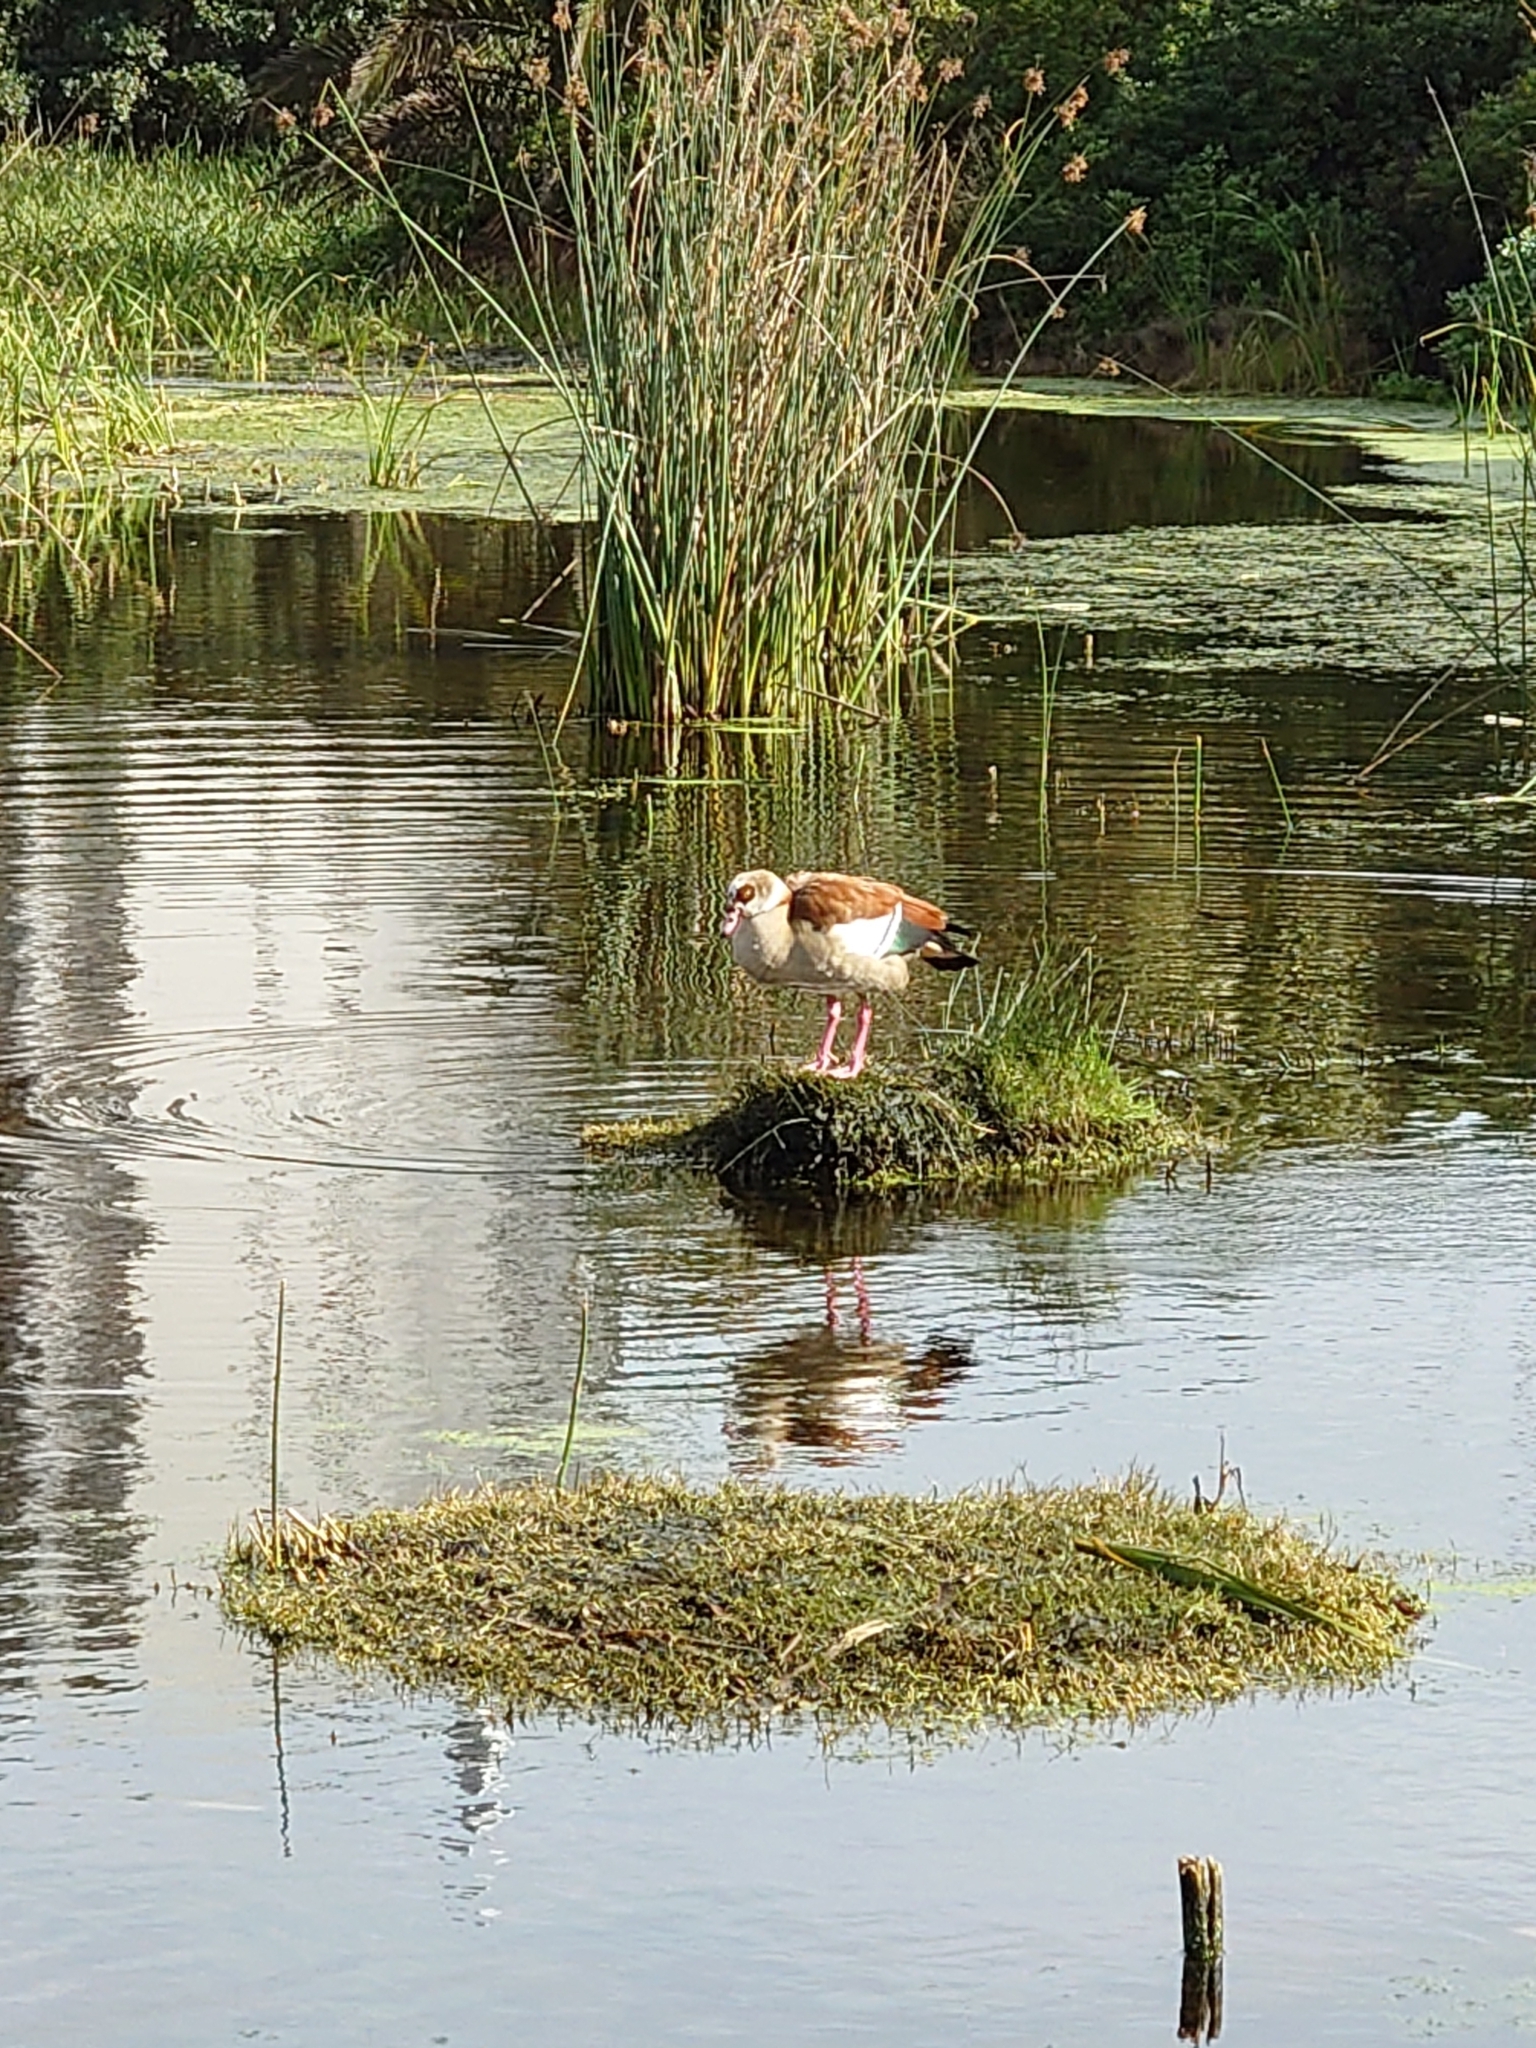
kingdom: Animalia
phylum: Chordata
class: Aves
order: Anseriformes
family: Anatidae
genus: Alopochen
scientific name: Alopochen aegyptiaca
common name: Egyptian goose
